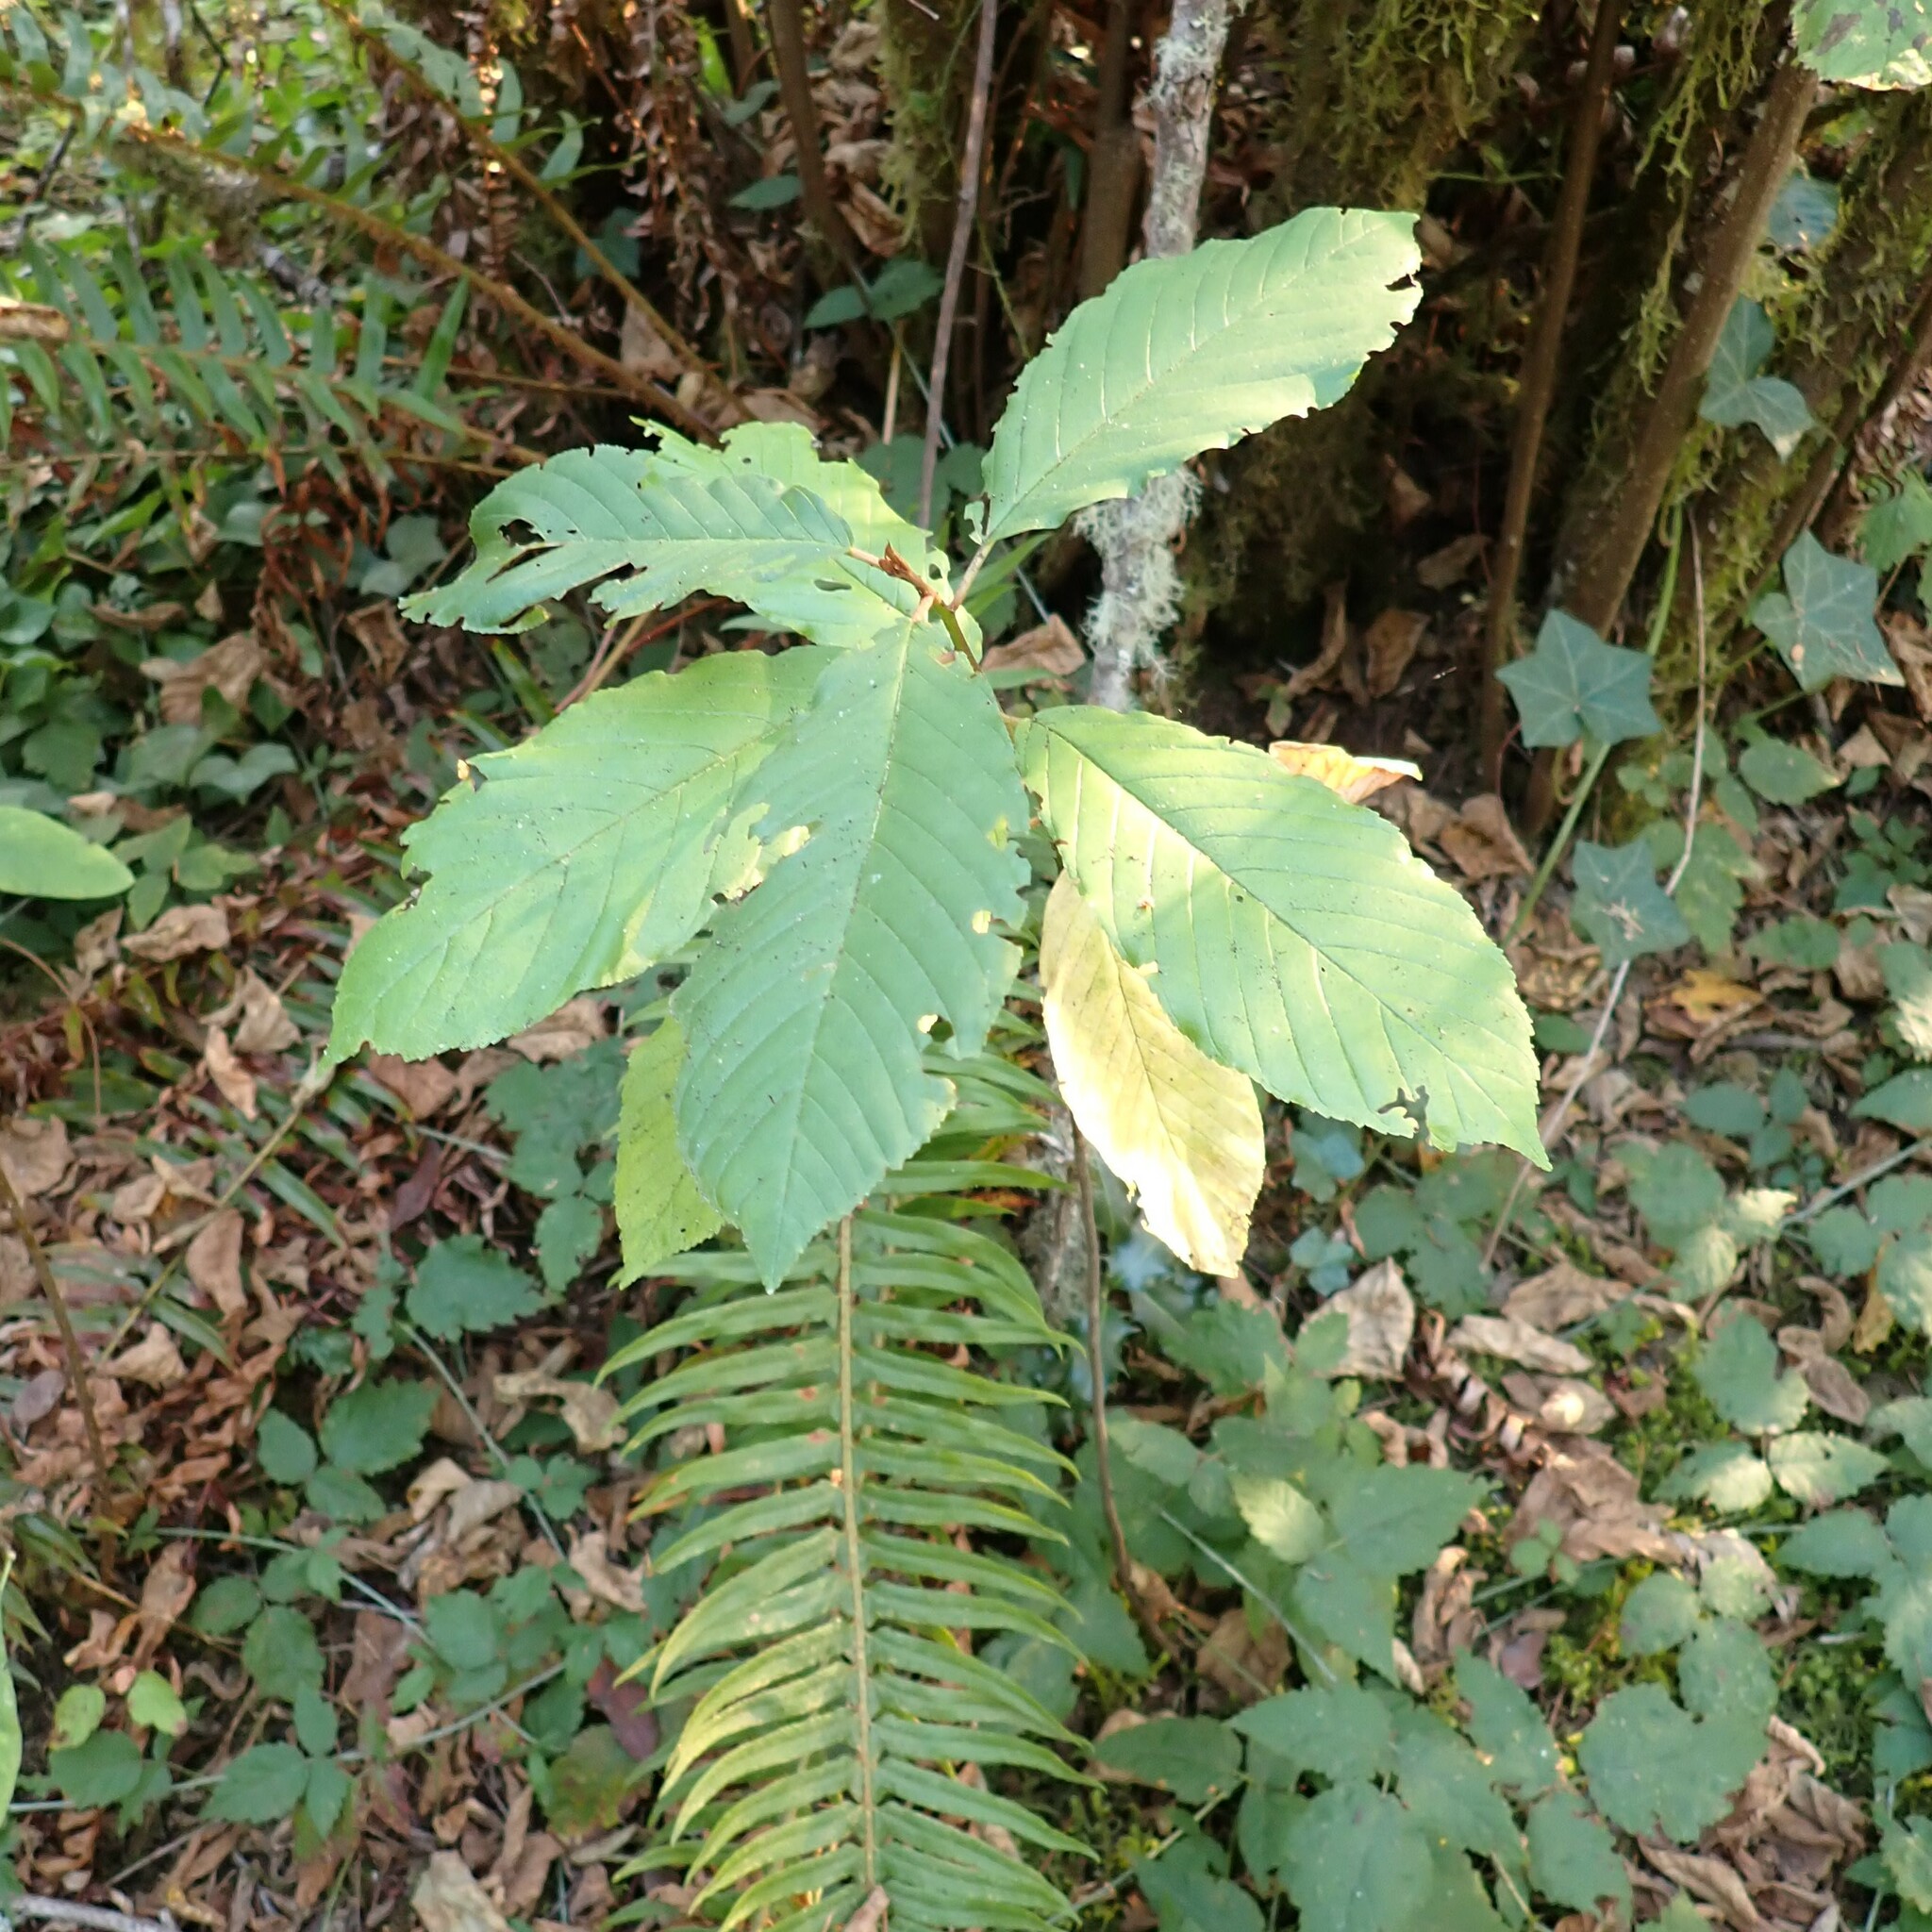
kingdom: Plantae
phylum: Tracheophyta
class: Magnoliopsida
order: Rosales
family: Rhamnaceae
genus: Frangula
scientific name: Frangula purshiana
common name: Cascara buckthorn
